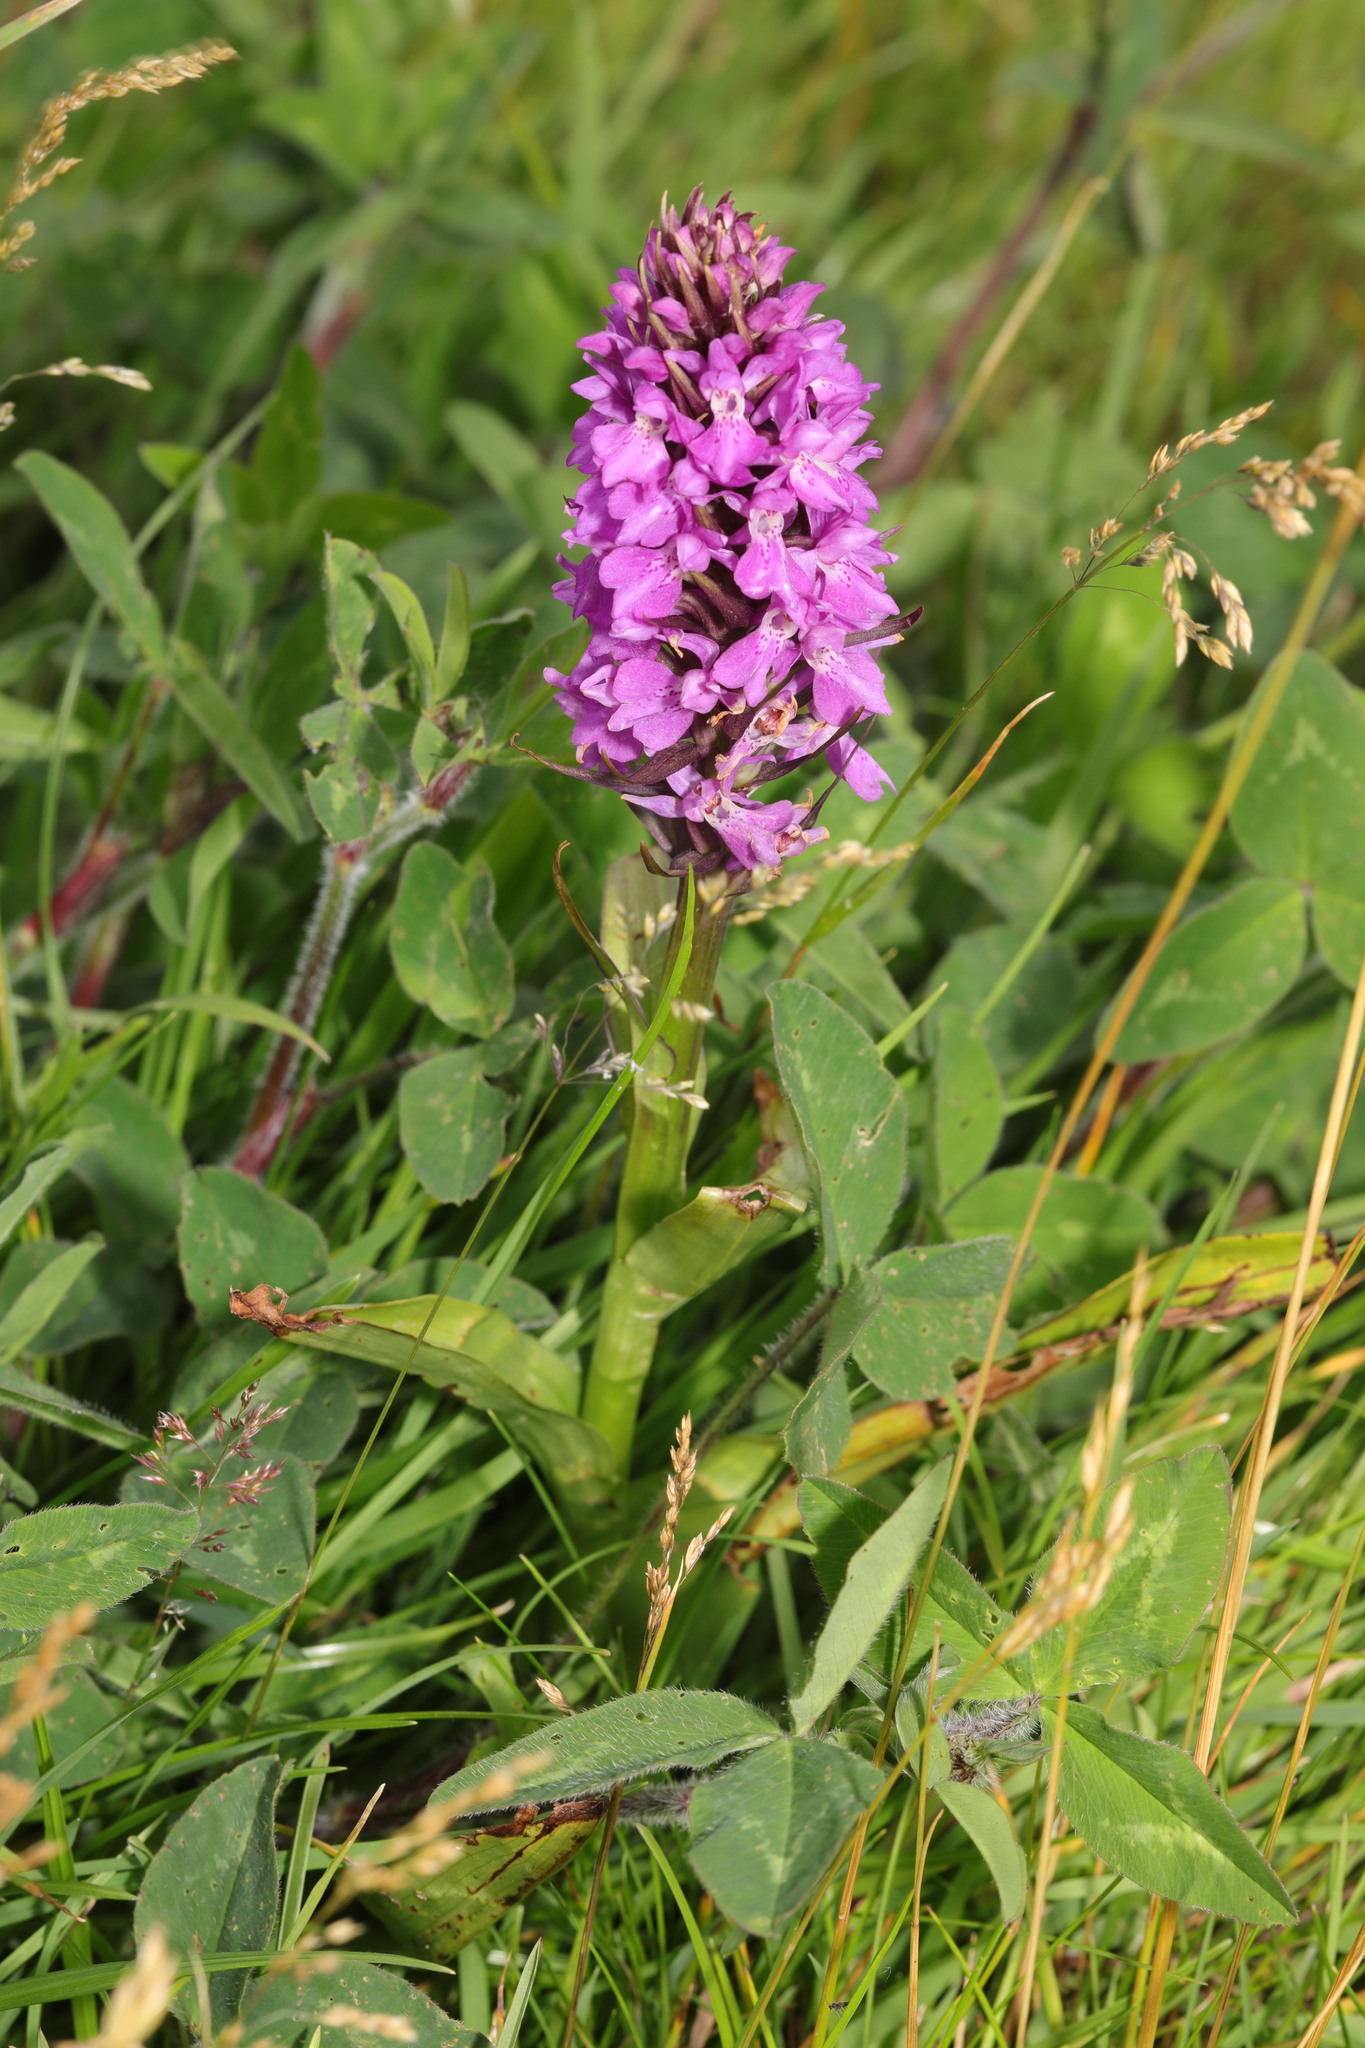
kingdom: Plantae
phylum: Tracheophyta
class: Liliopsida
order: Asparagales
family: Orchidaceae
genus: Dactylorhiza
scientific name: Dactylorhiza majalis
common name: Marsh orchid
